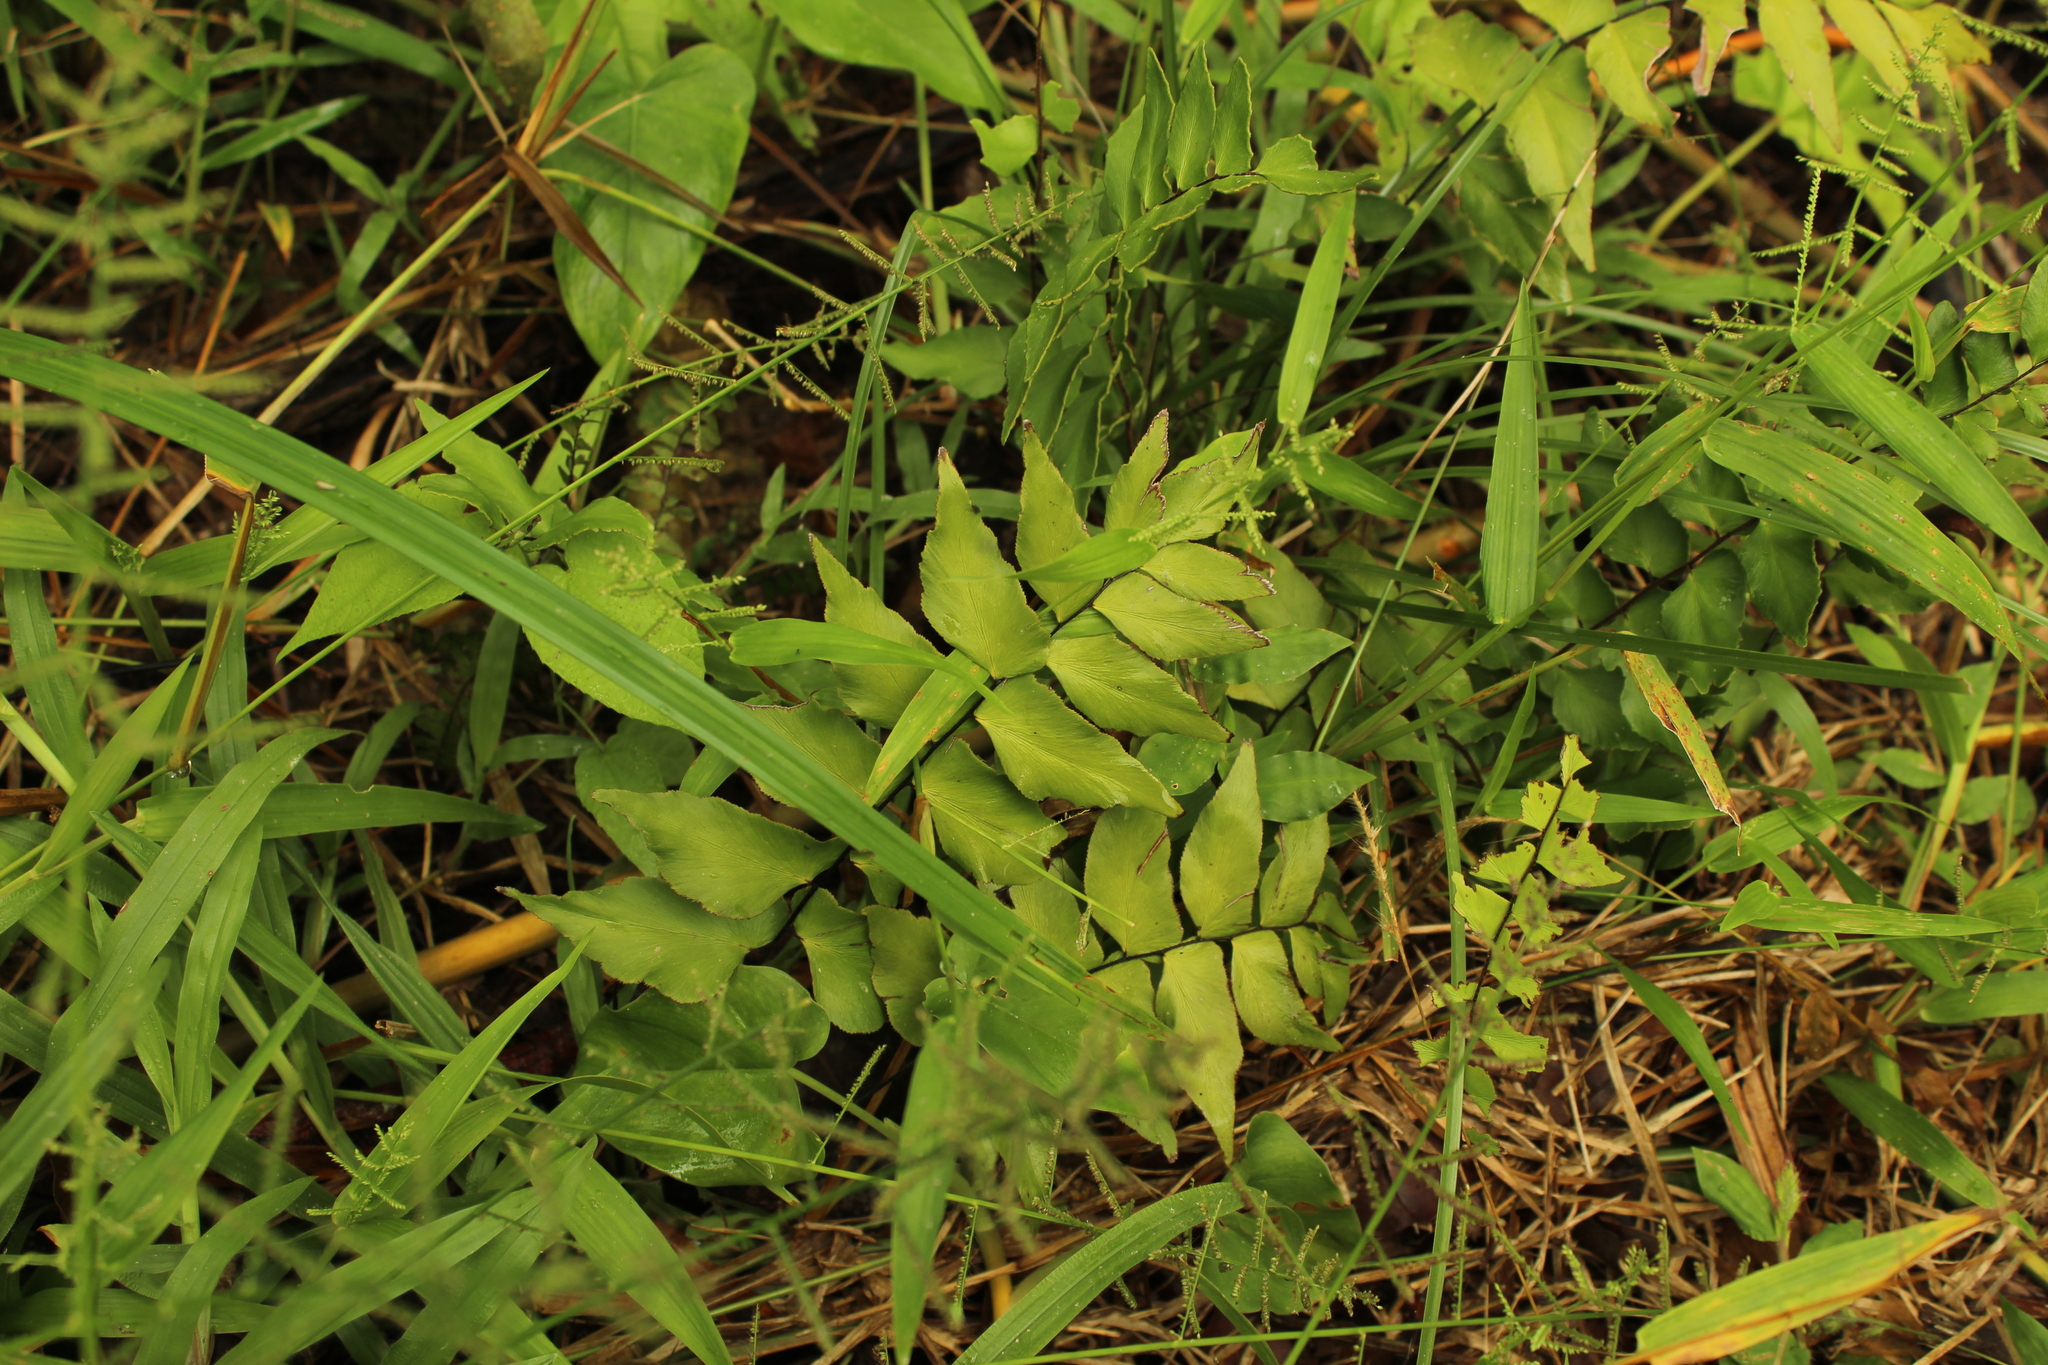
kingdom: Plantae
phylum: Tracheophyta
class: Polypodiopsida
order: Polypodiales
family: Pteridaceae
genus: Adiantum
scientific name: Adiantum petiolatum
